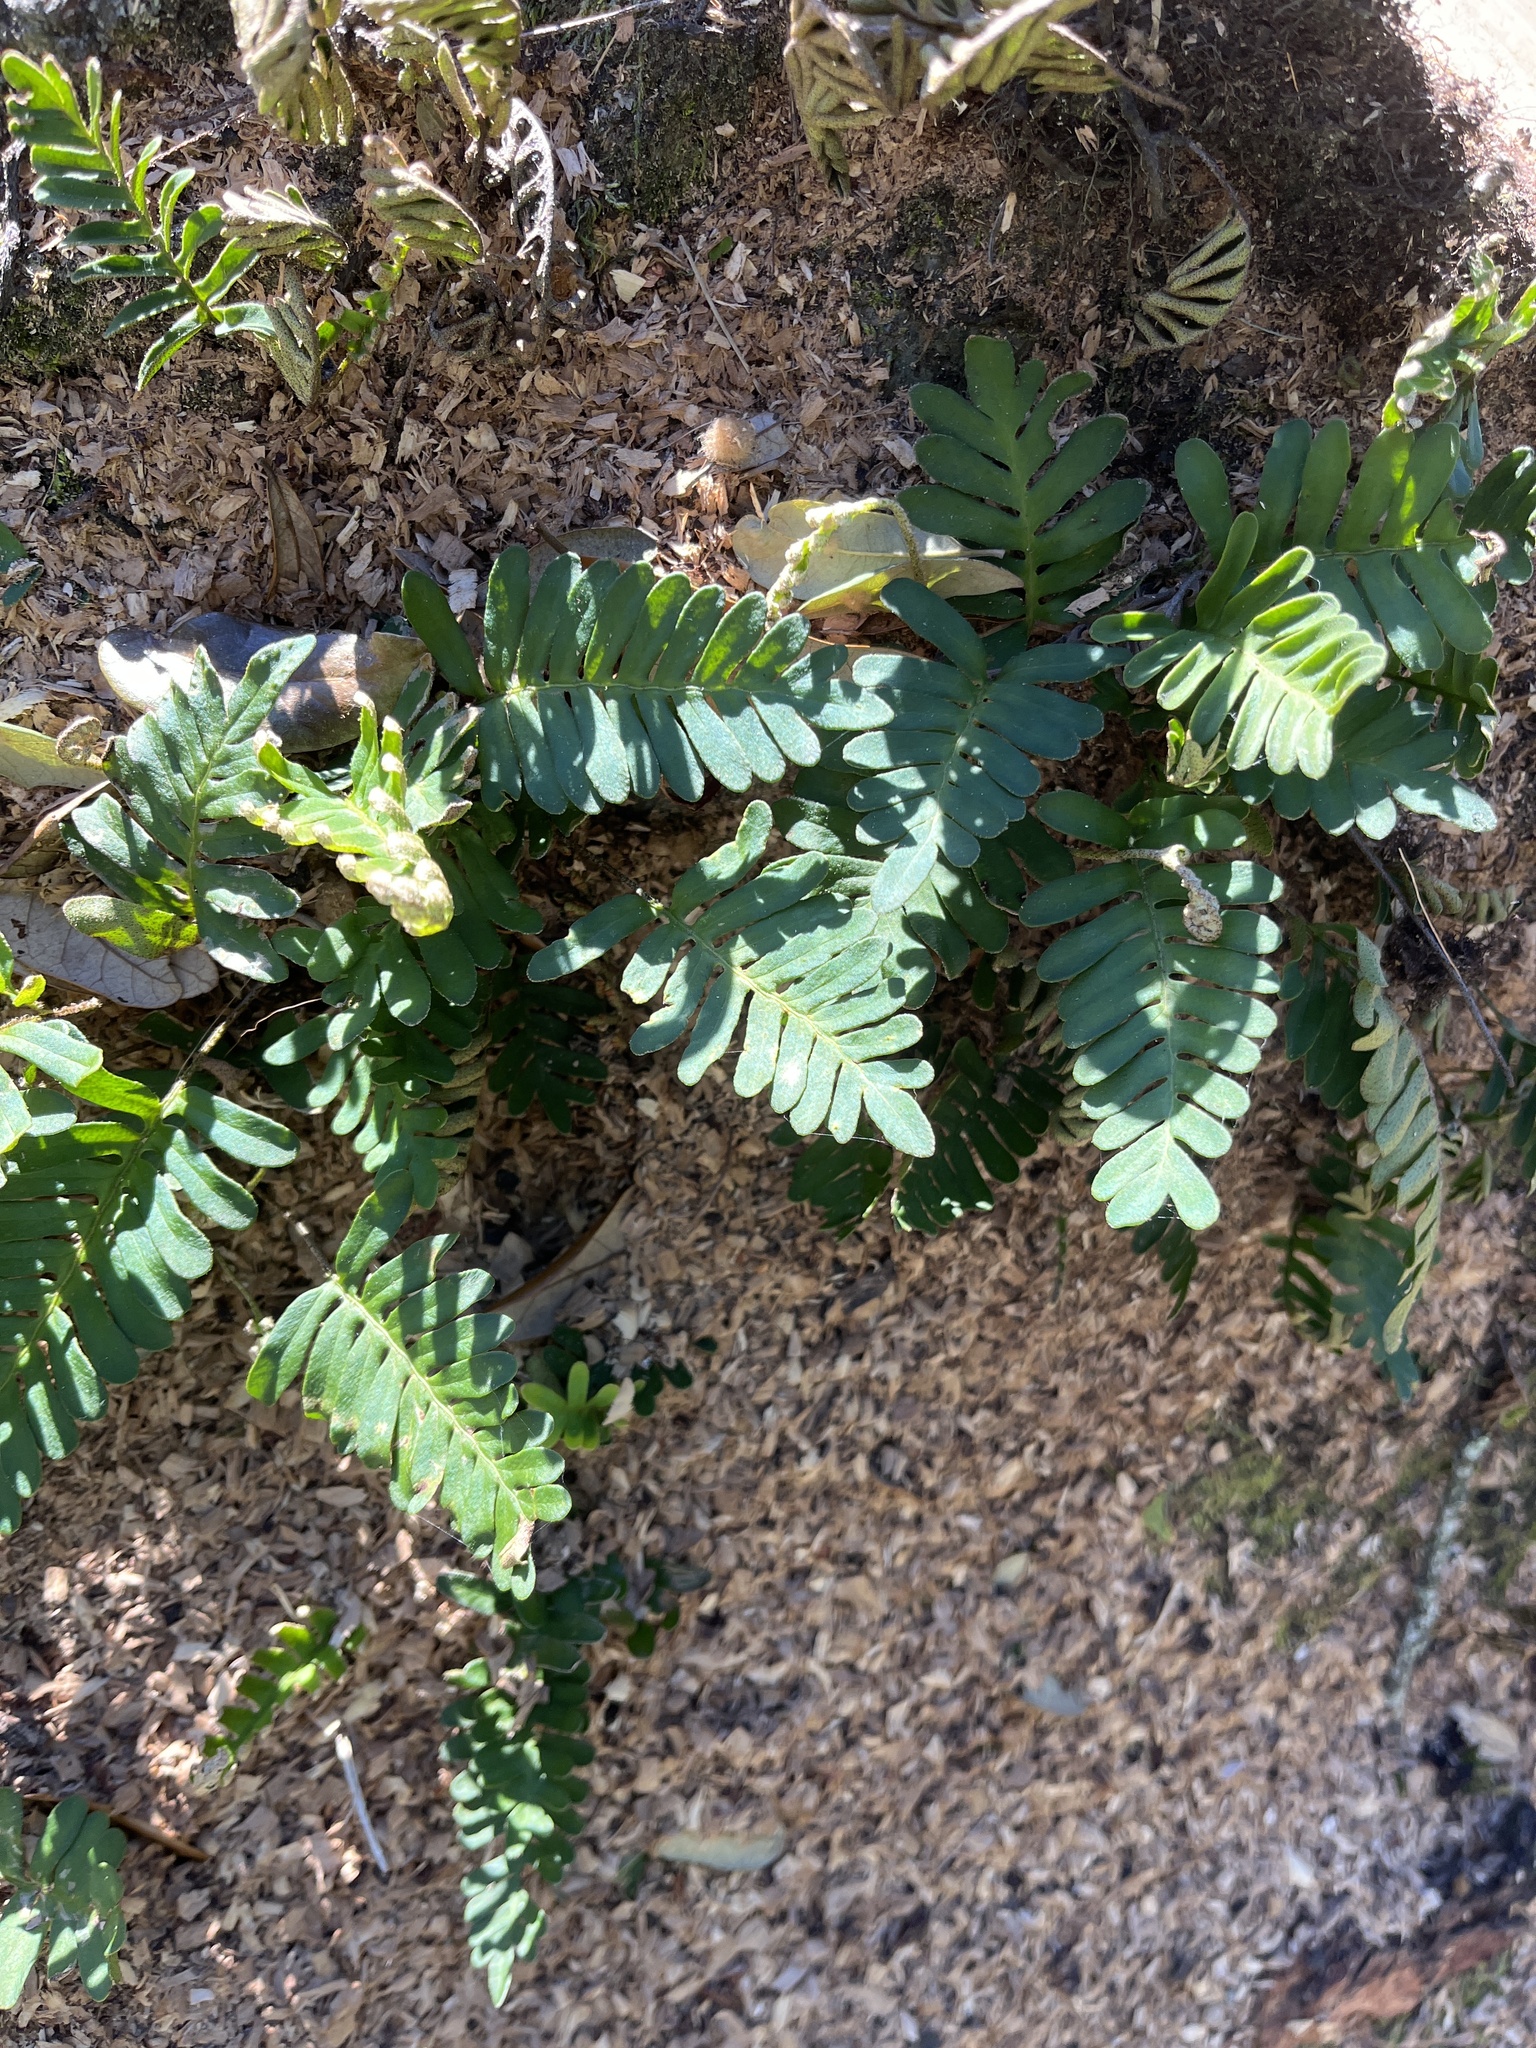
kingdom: Plantae
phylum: Tracheophyta
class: Polypodiopsida
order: Polypodiales
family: Polypodiaceae
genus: Pleopeltis
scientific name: Pleopeltis michauxiana
